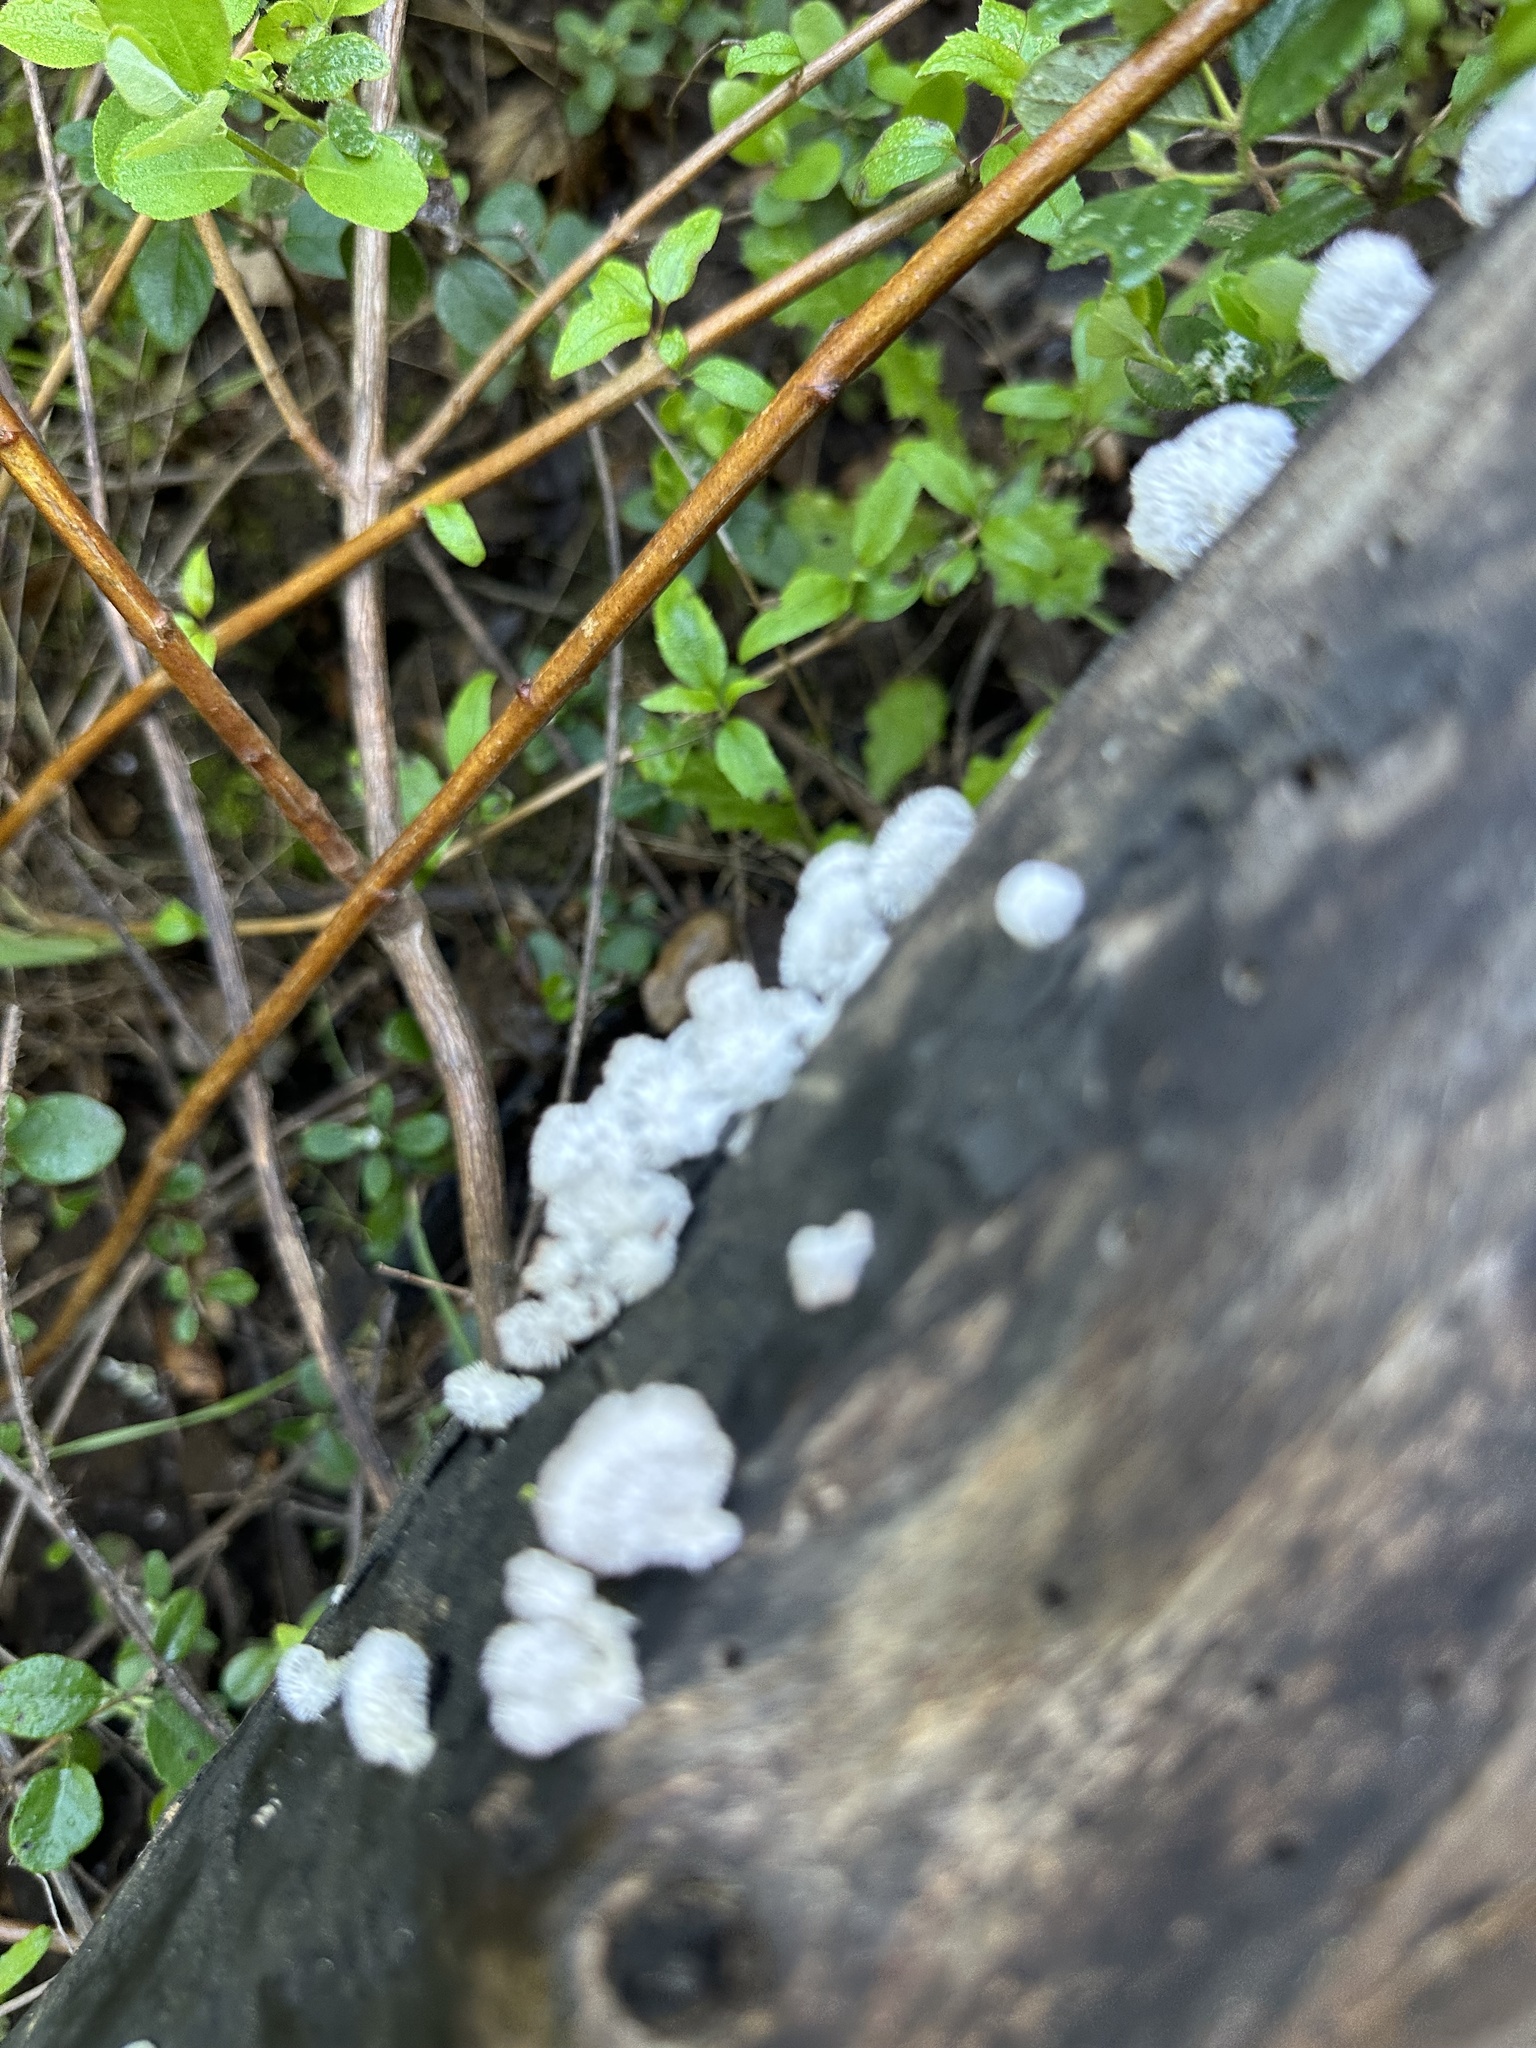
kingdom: Fungi
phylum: Basidiomycota
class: Agaricomycetes
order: Agaricales
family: Schizophyllaceae
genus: Schizophyllum
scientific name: Schizophyllum commune
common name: Common porecrust
